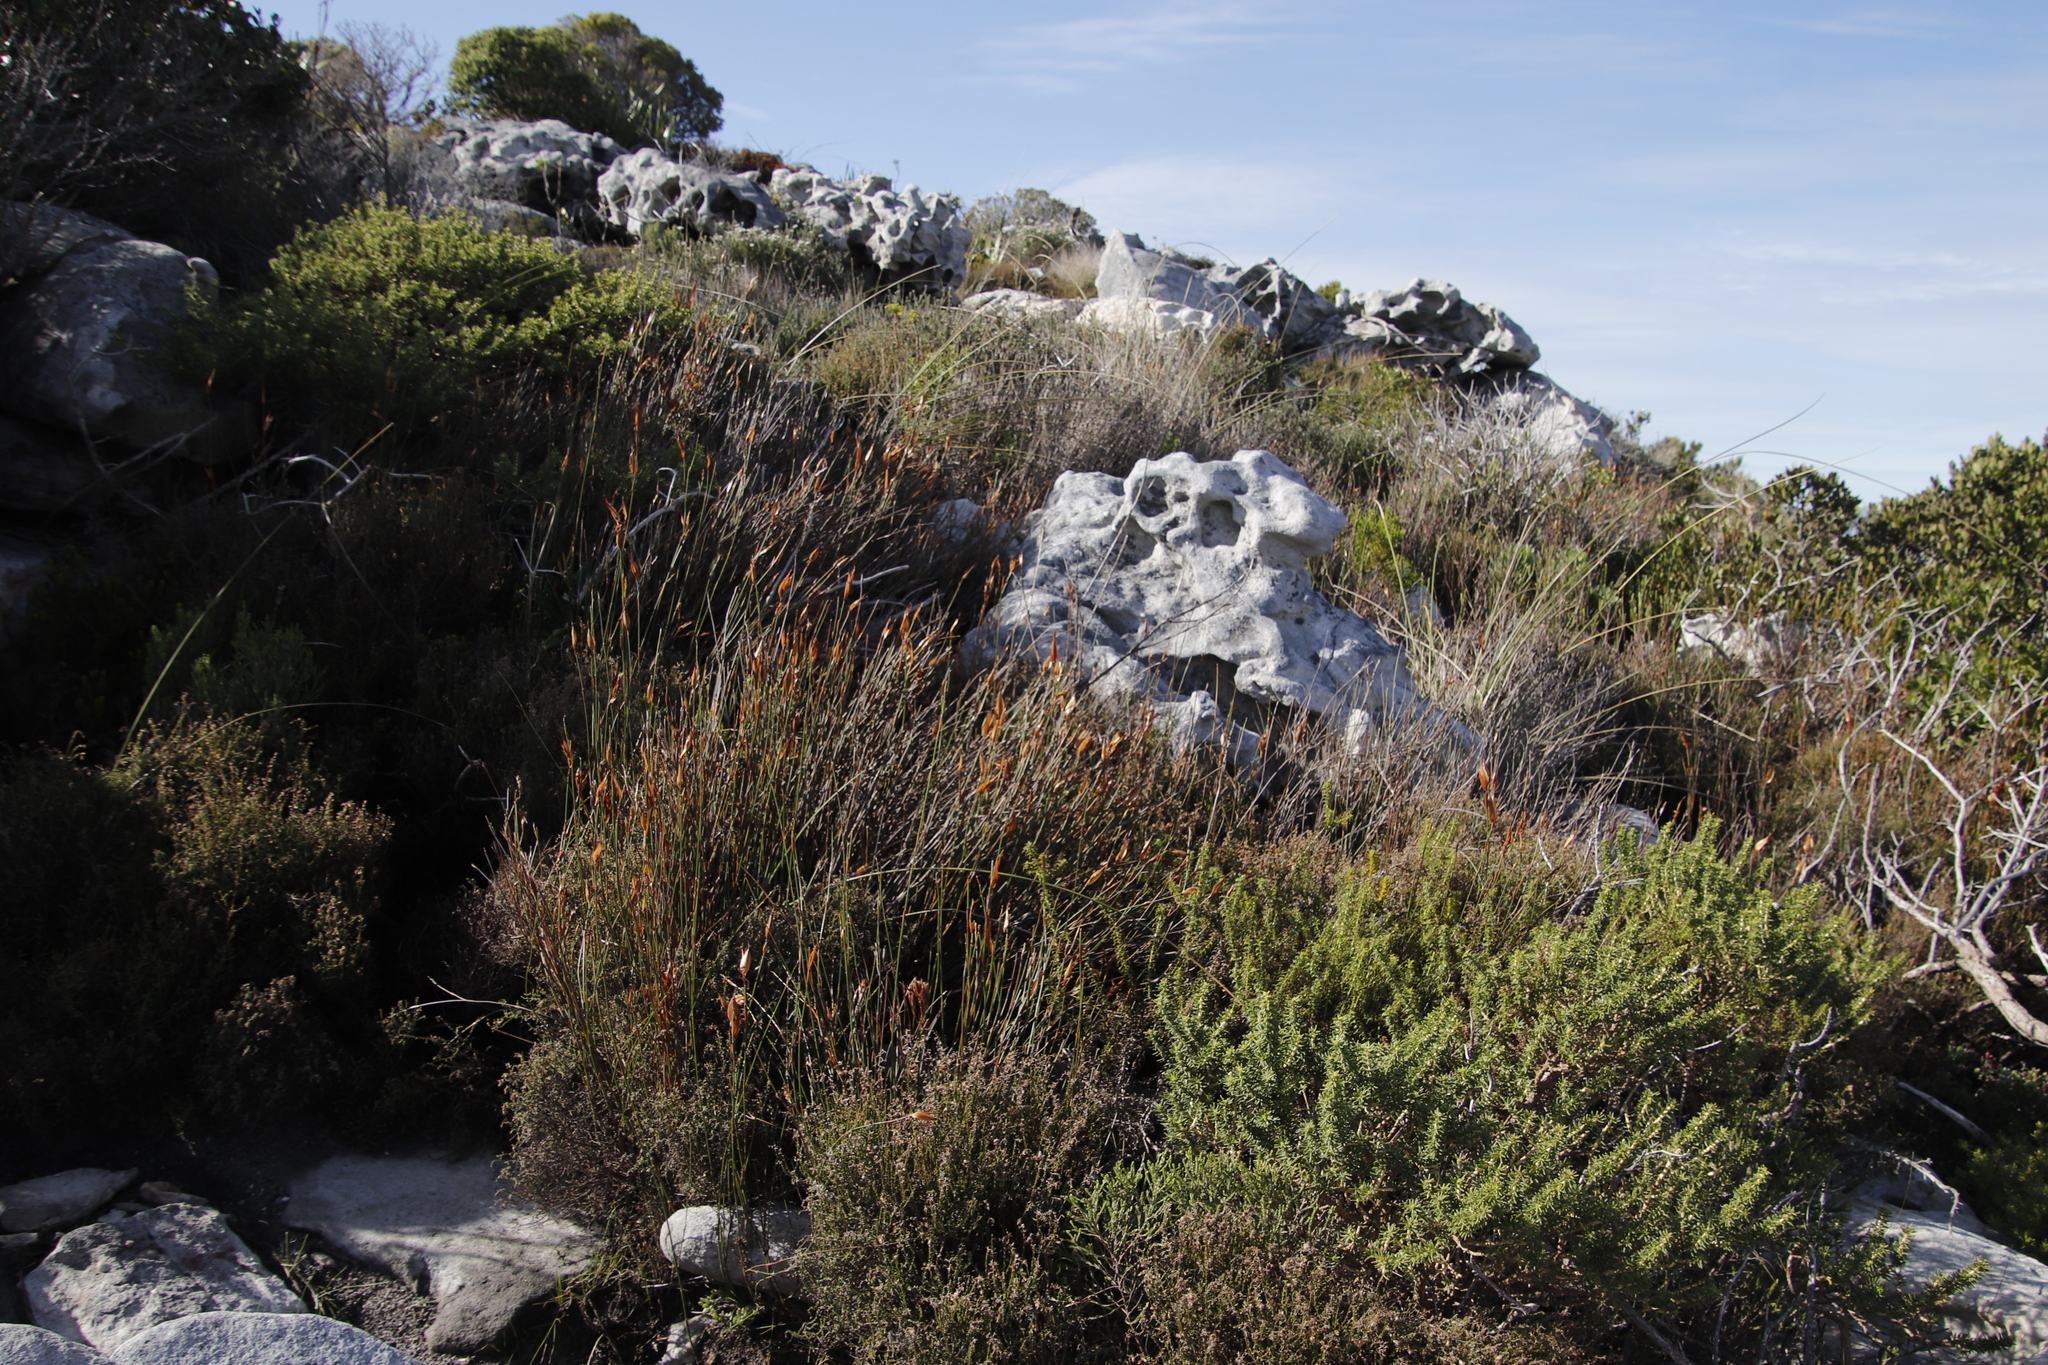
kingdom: Plantae
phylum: Tracheophyta
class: Liliopsida
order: Poales
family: Restionaceae
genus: Willdenowia
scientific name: Willdenowia glomerata
